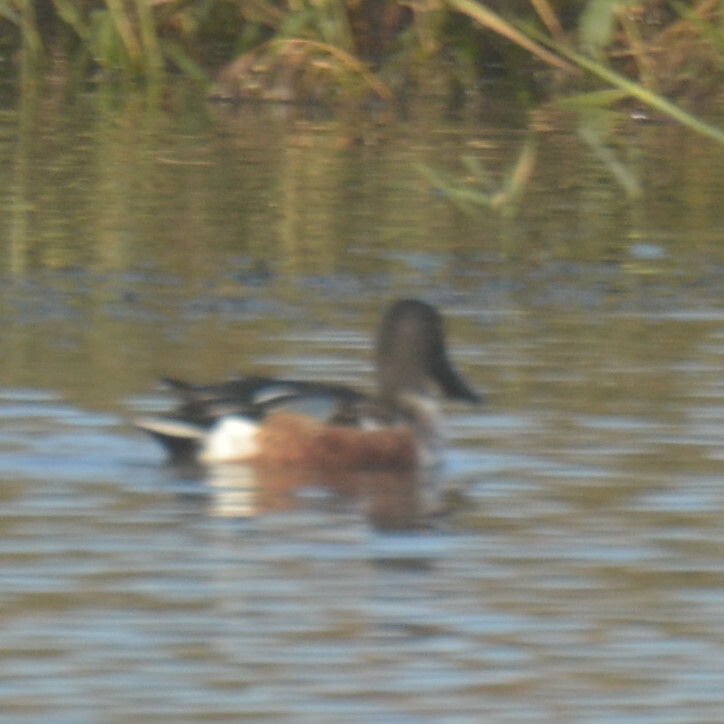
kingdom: Animalia
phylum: Chordata
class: Aves
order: Anseriformes
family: Anatidae
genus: Spatula
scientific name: Spatula clypeata
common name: Northern shoveler
